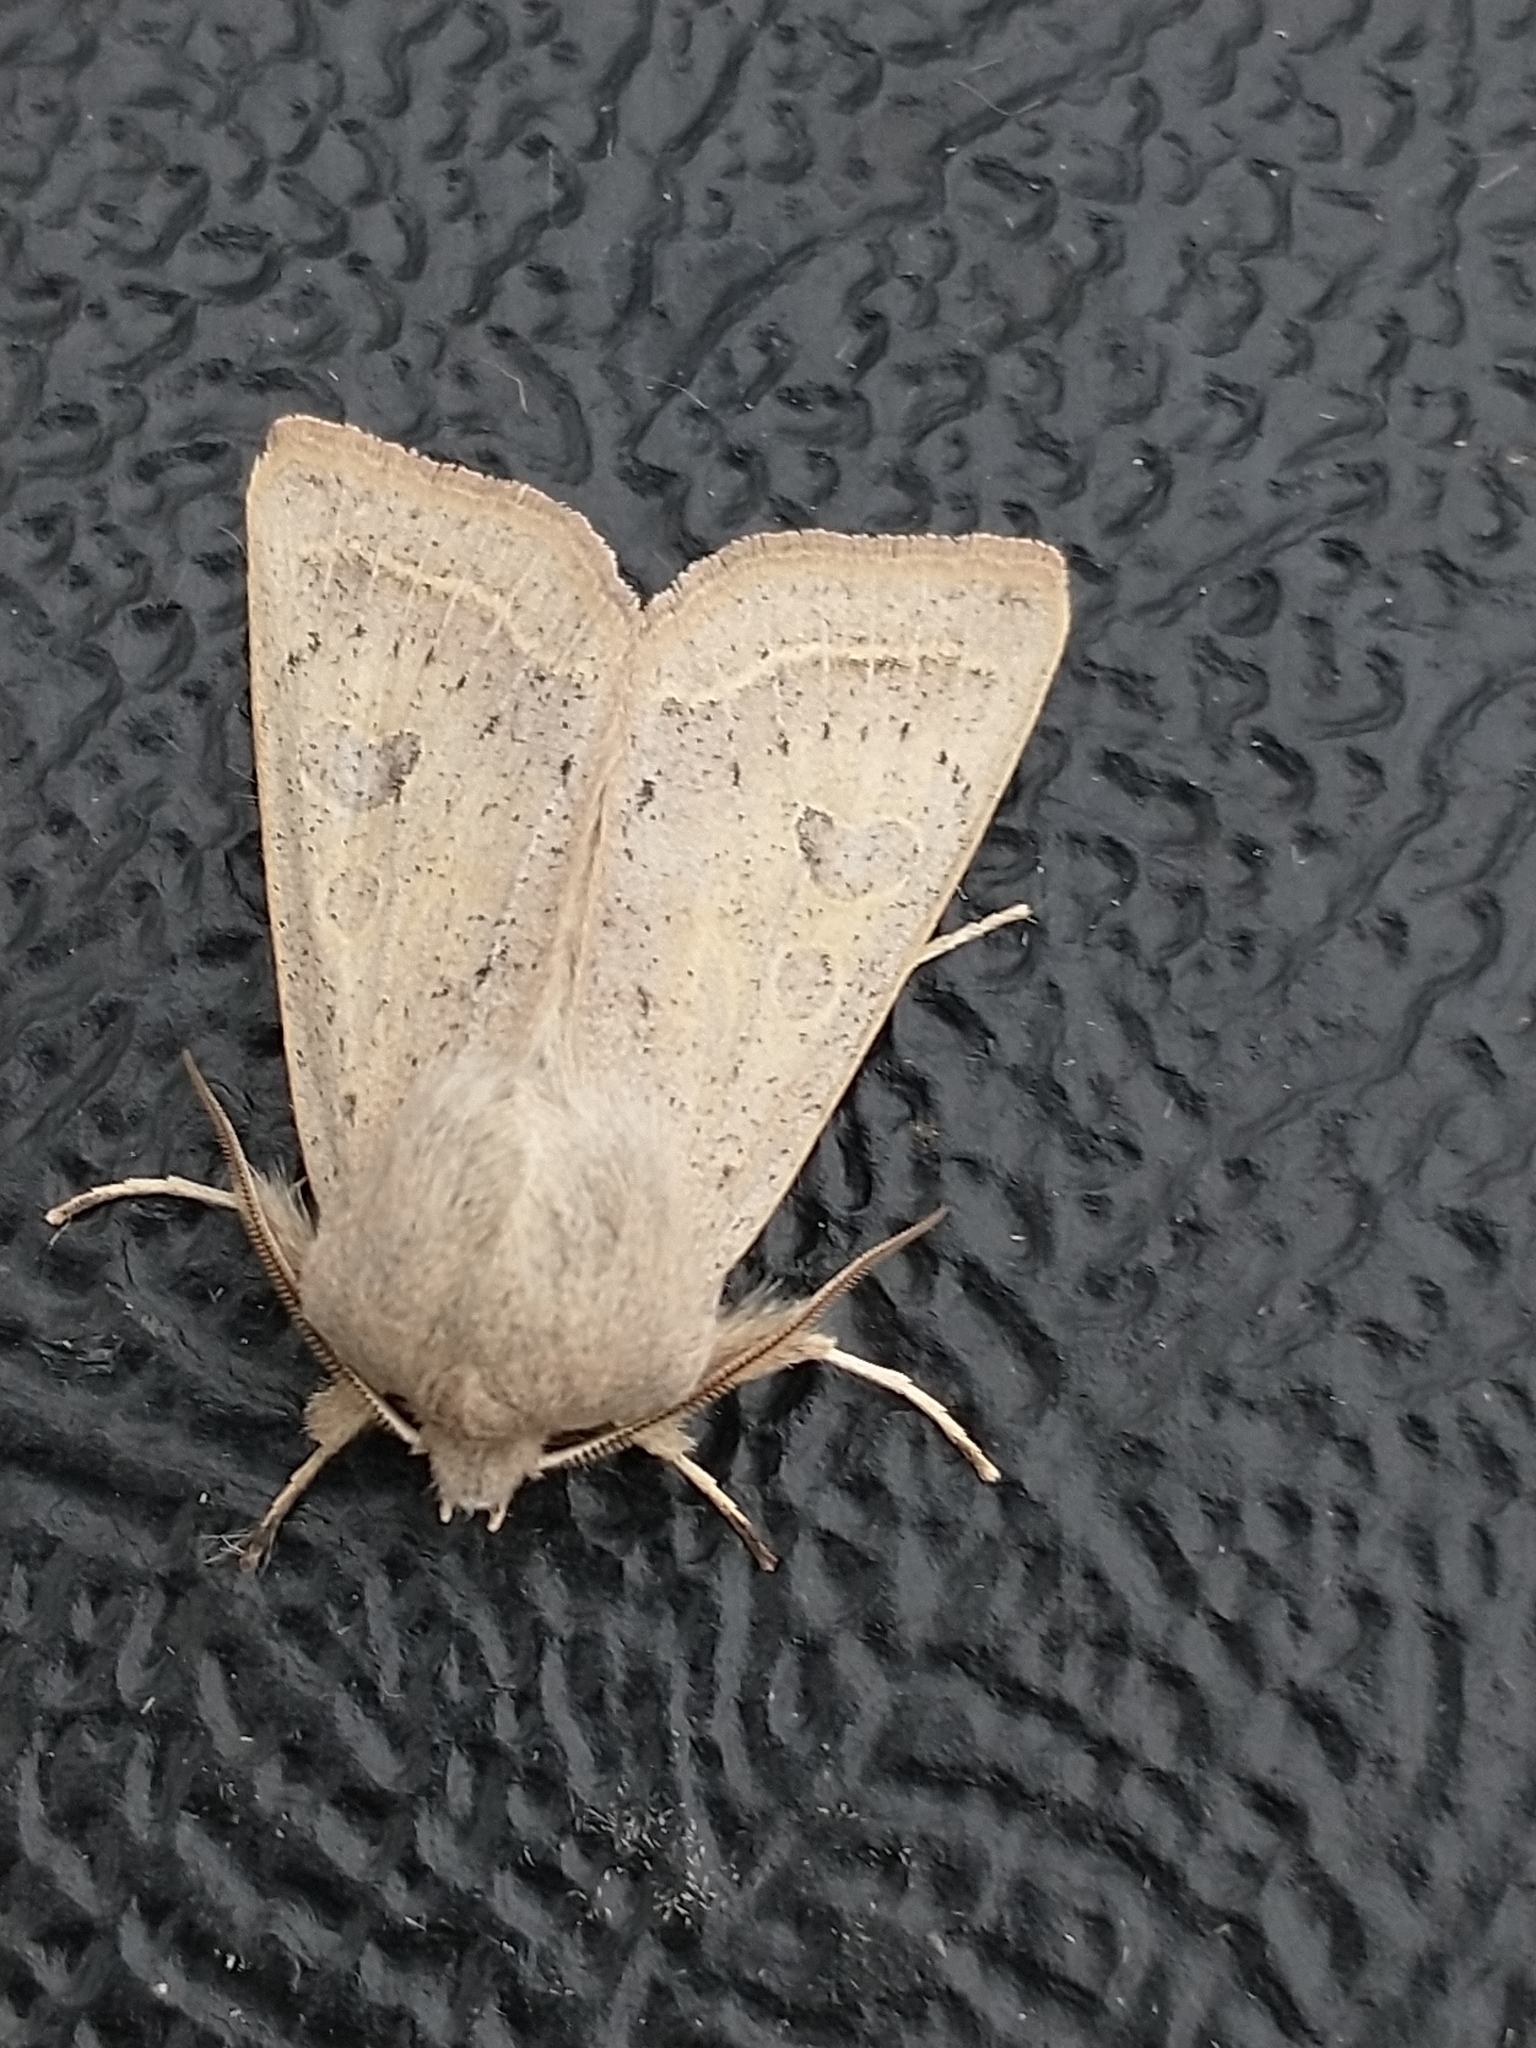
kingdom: Animalia
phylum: Arthropoda
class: Insecta
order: Lepidoptera
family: Noctuidae
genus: Orthosia
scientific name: Orthosia gracilis
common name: Powdered quaker
